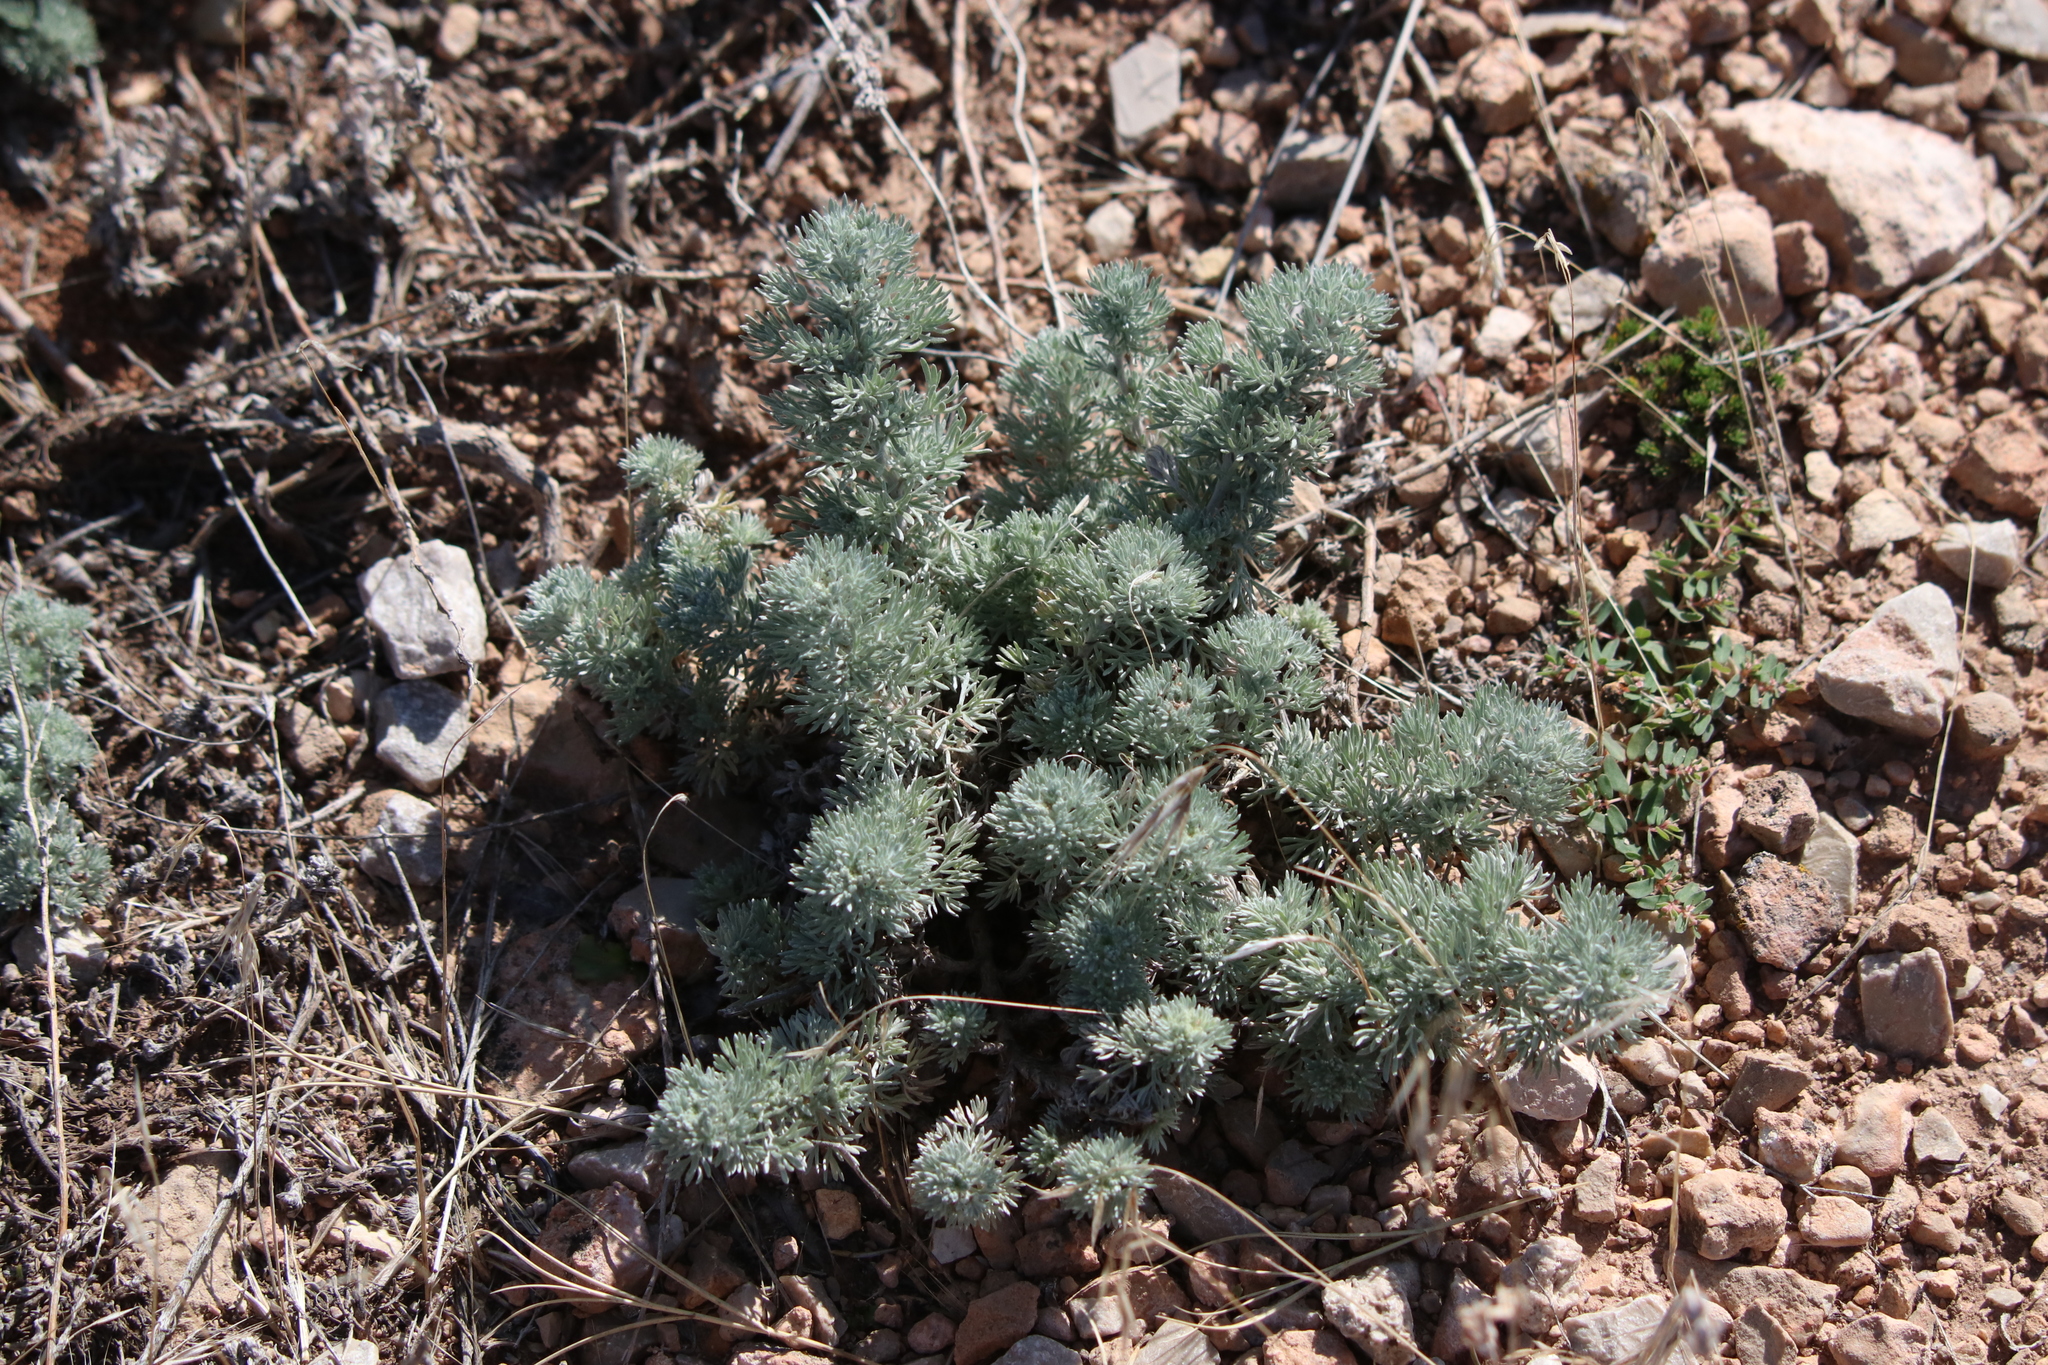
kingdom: Plantae
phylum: Tracheophyta
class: Magnoliopsida
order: Asterales
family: Asteraceae
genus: Artemisia
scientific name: Artemisia frigida
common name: Prairie sagewort
